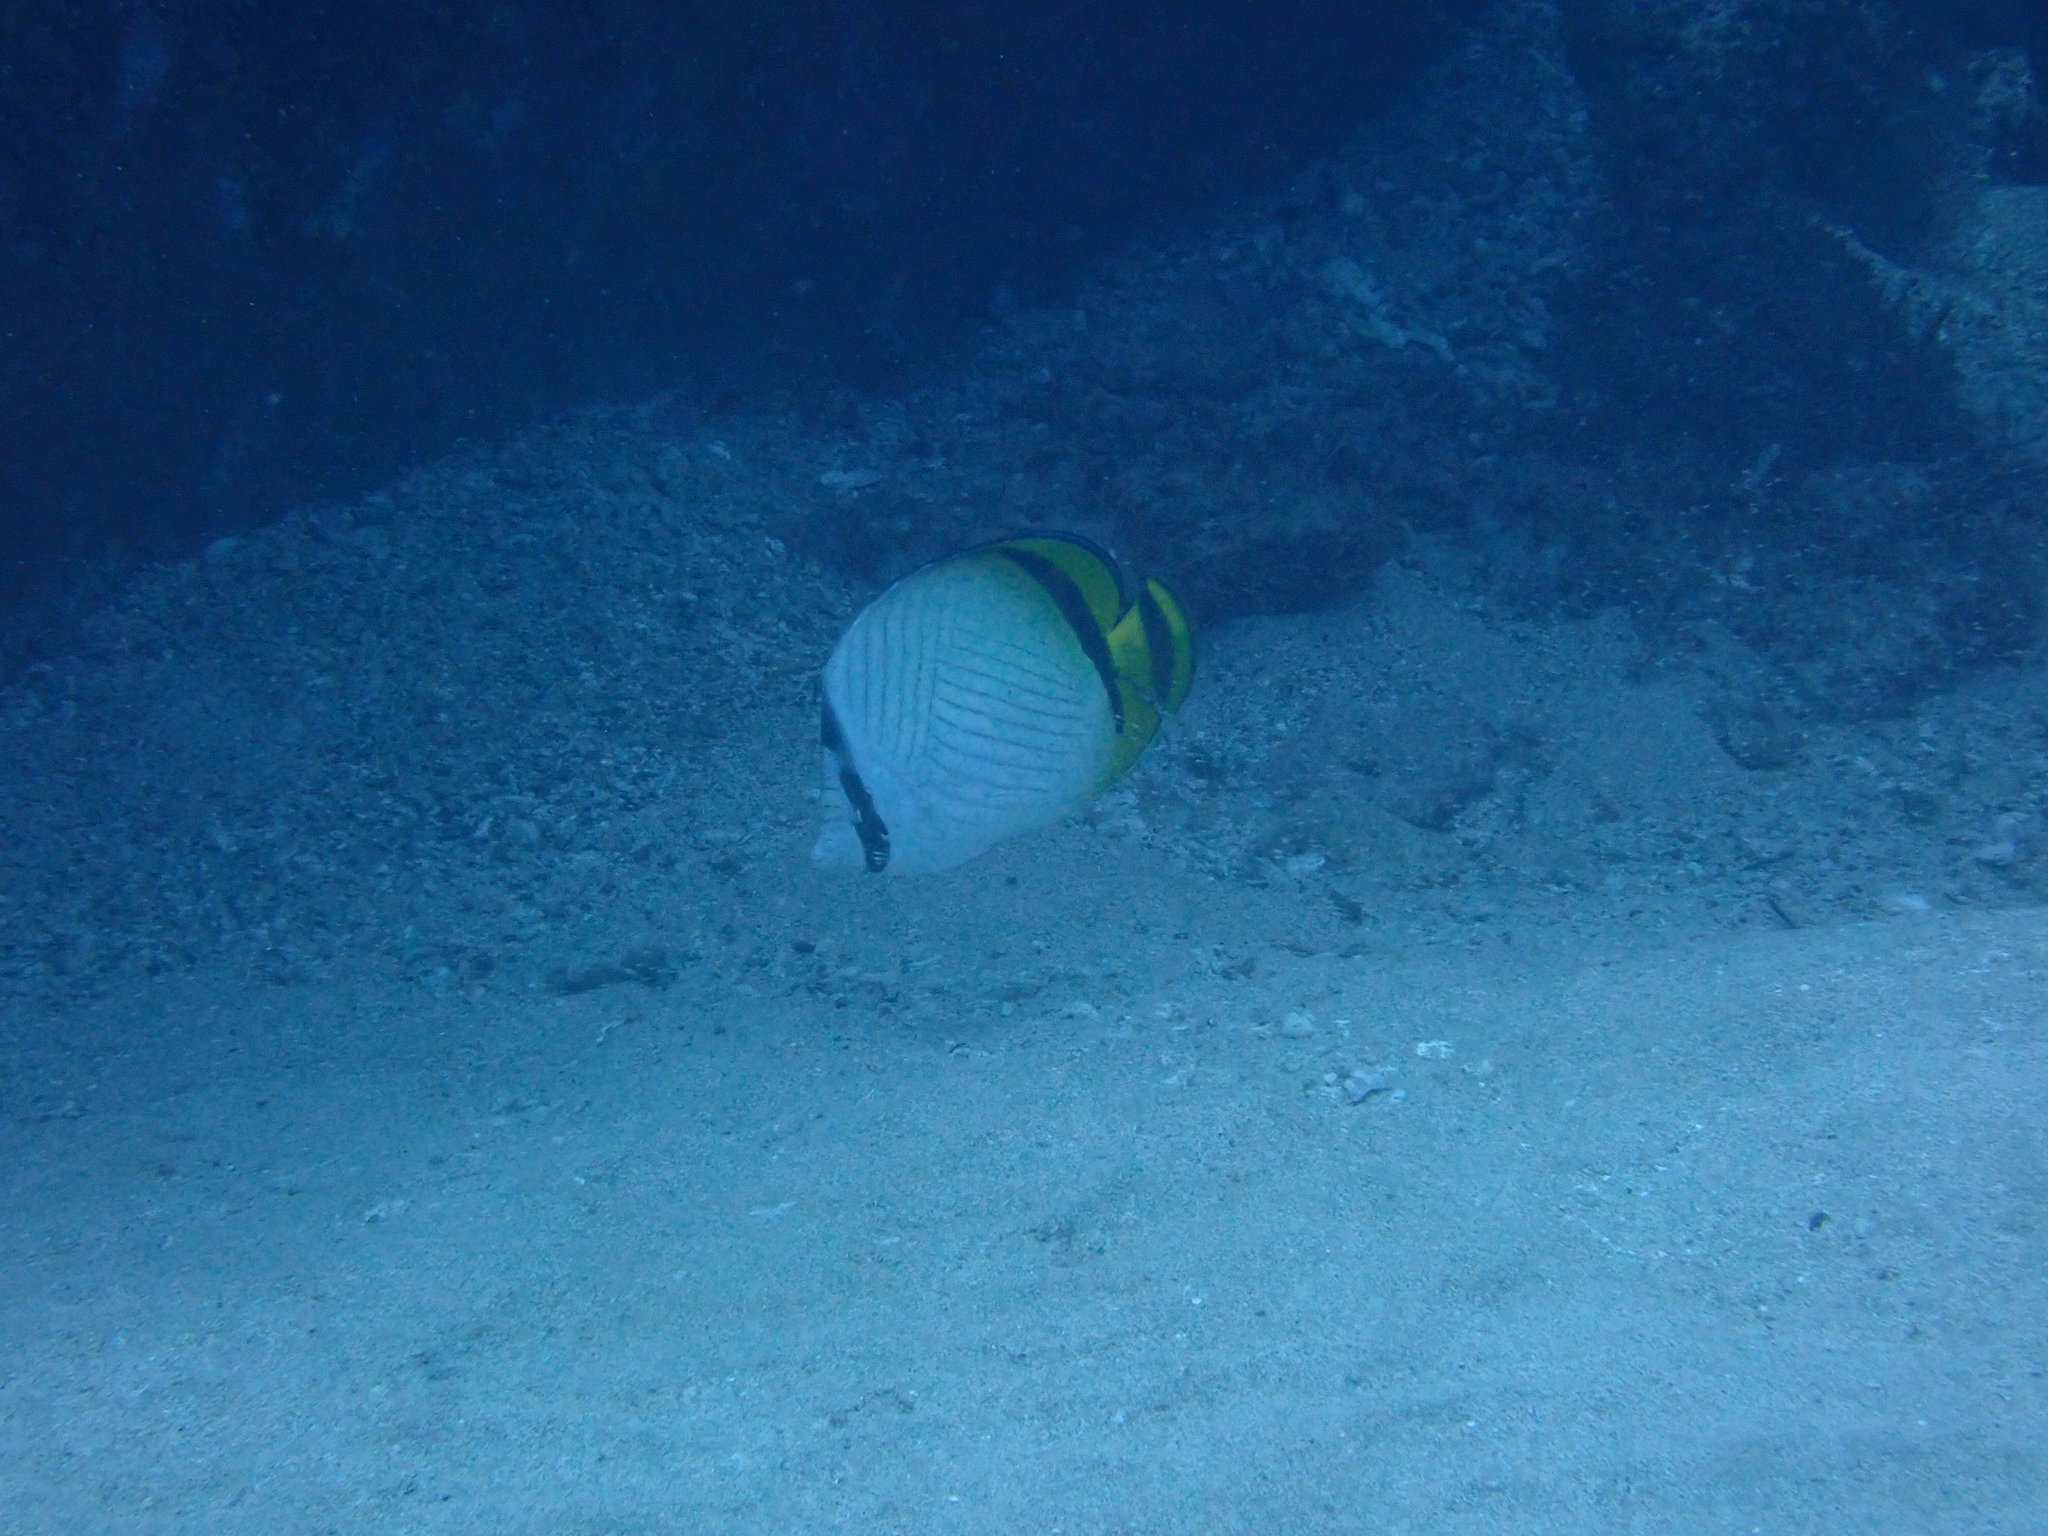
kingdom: Animalia
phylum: Chordata
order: Perciformes
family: Chaetodontidae
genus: Chaetodon
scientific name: Chaetodon vagabundus
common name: Vagabond butterflyfish
